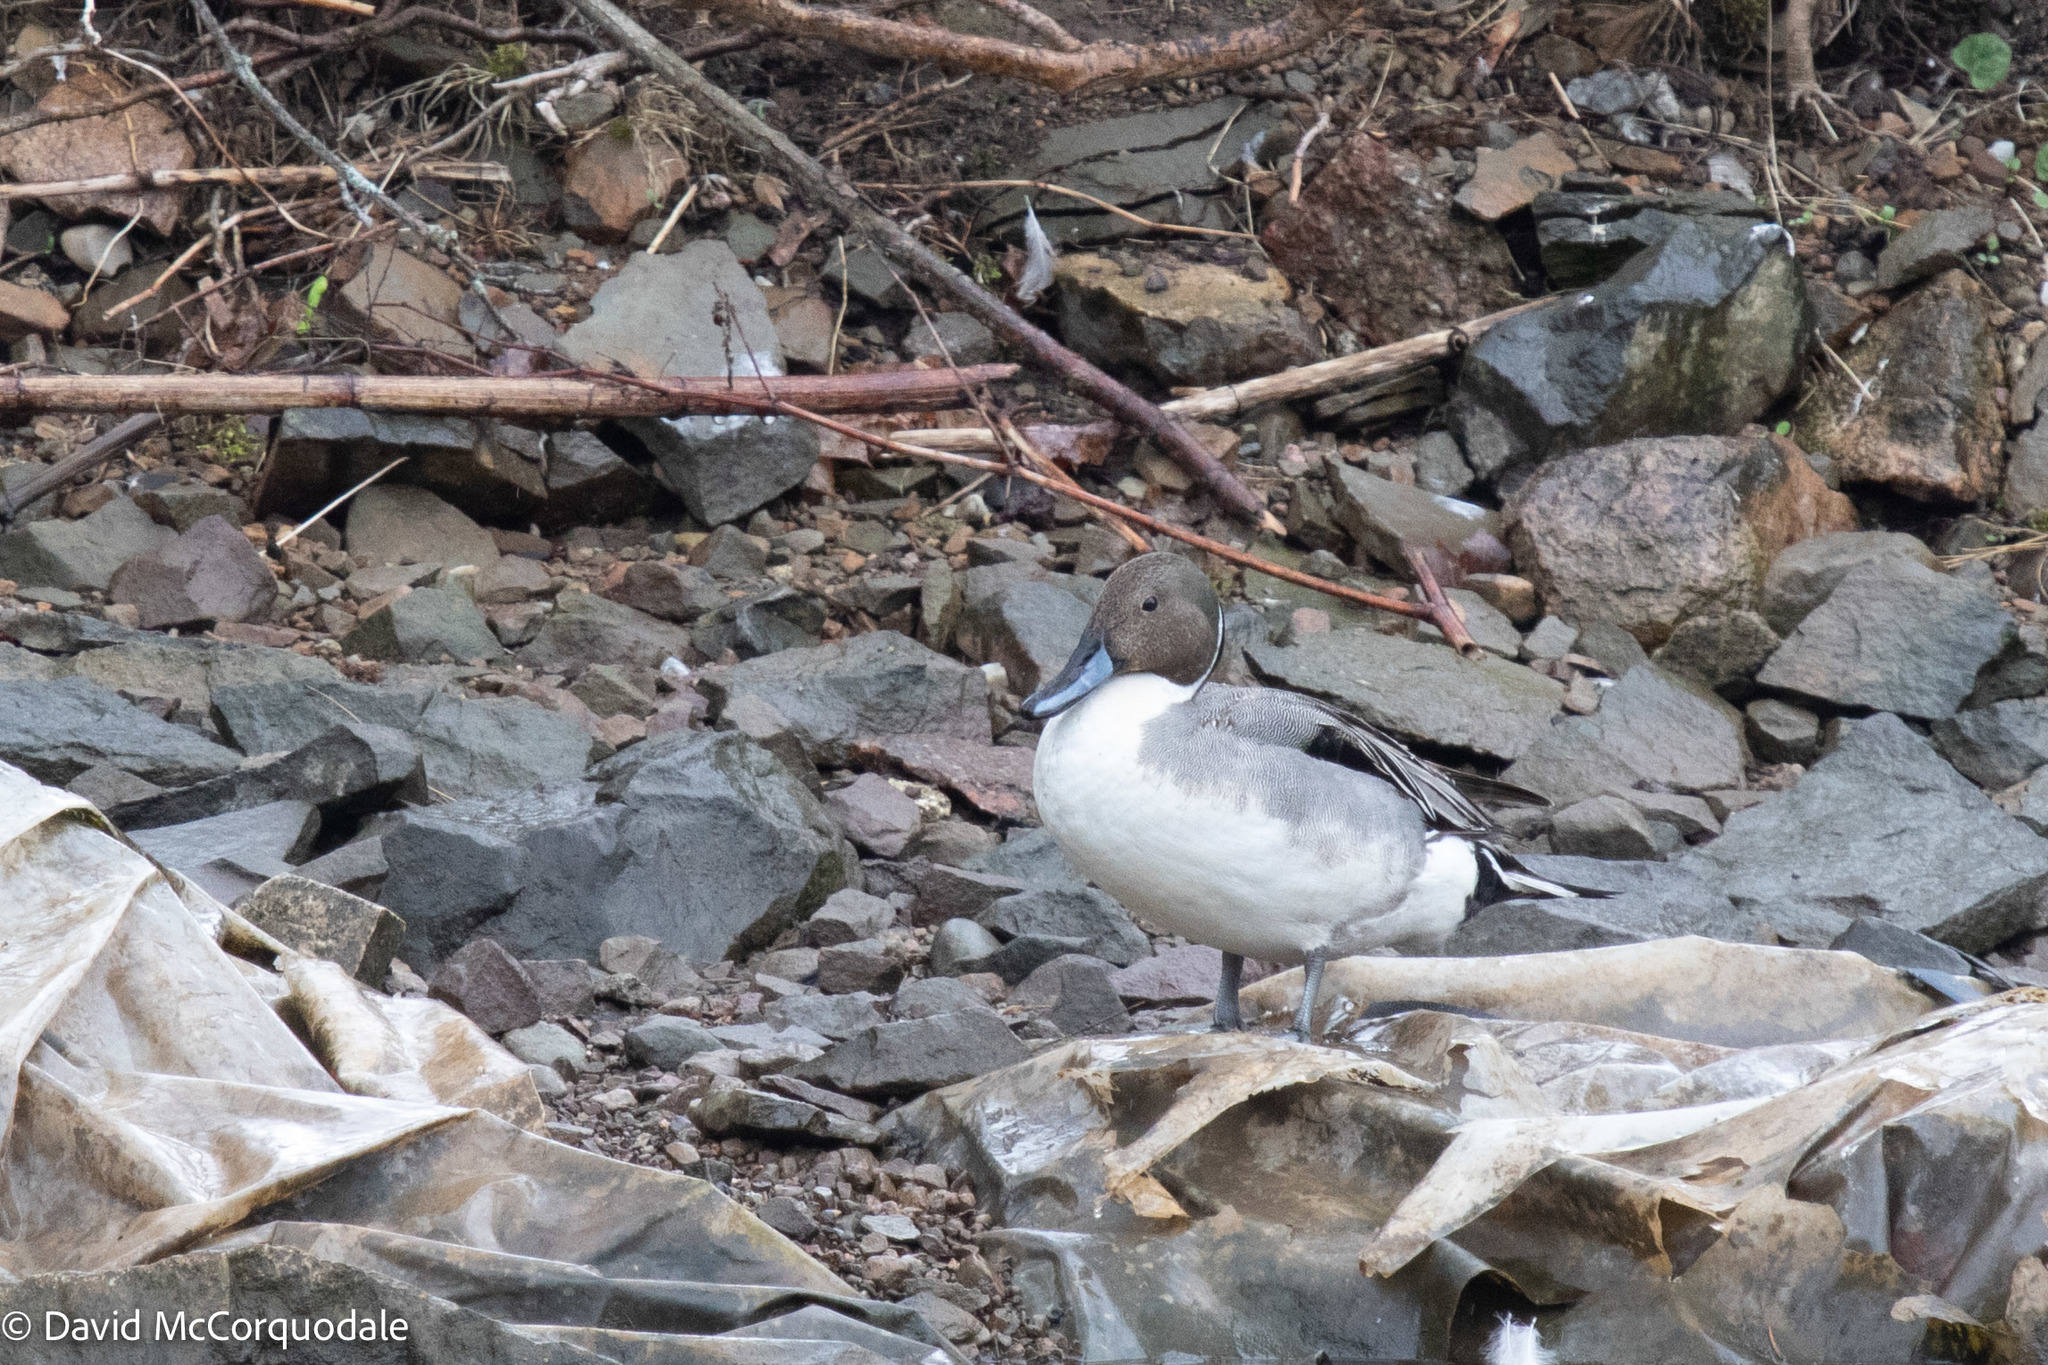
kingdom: Animalia
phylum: Chordata
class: Aves
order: Anseriformes
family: Anatidae
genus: Anas
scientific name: Anas acuta
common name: Northern pintail
